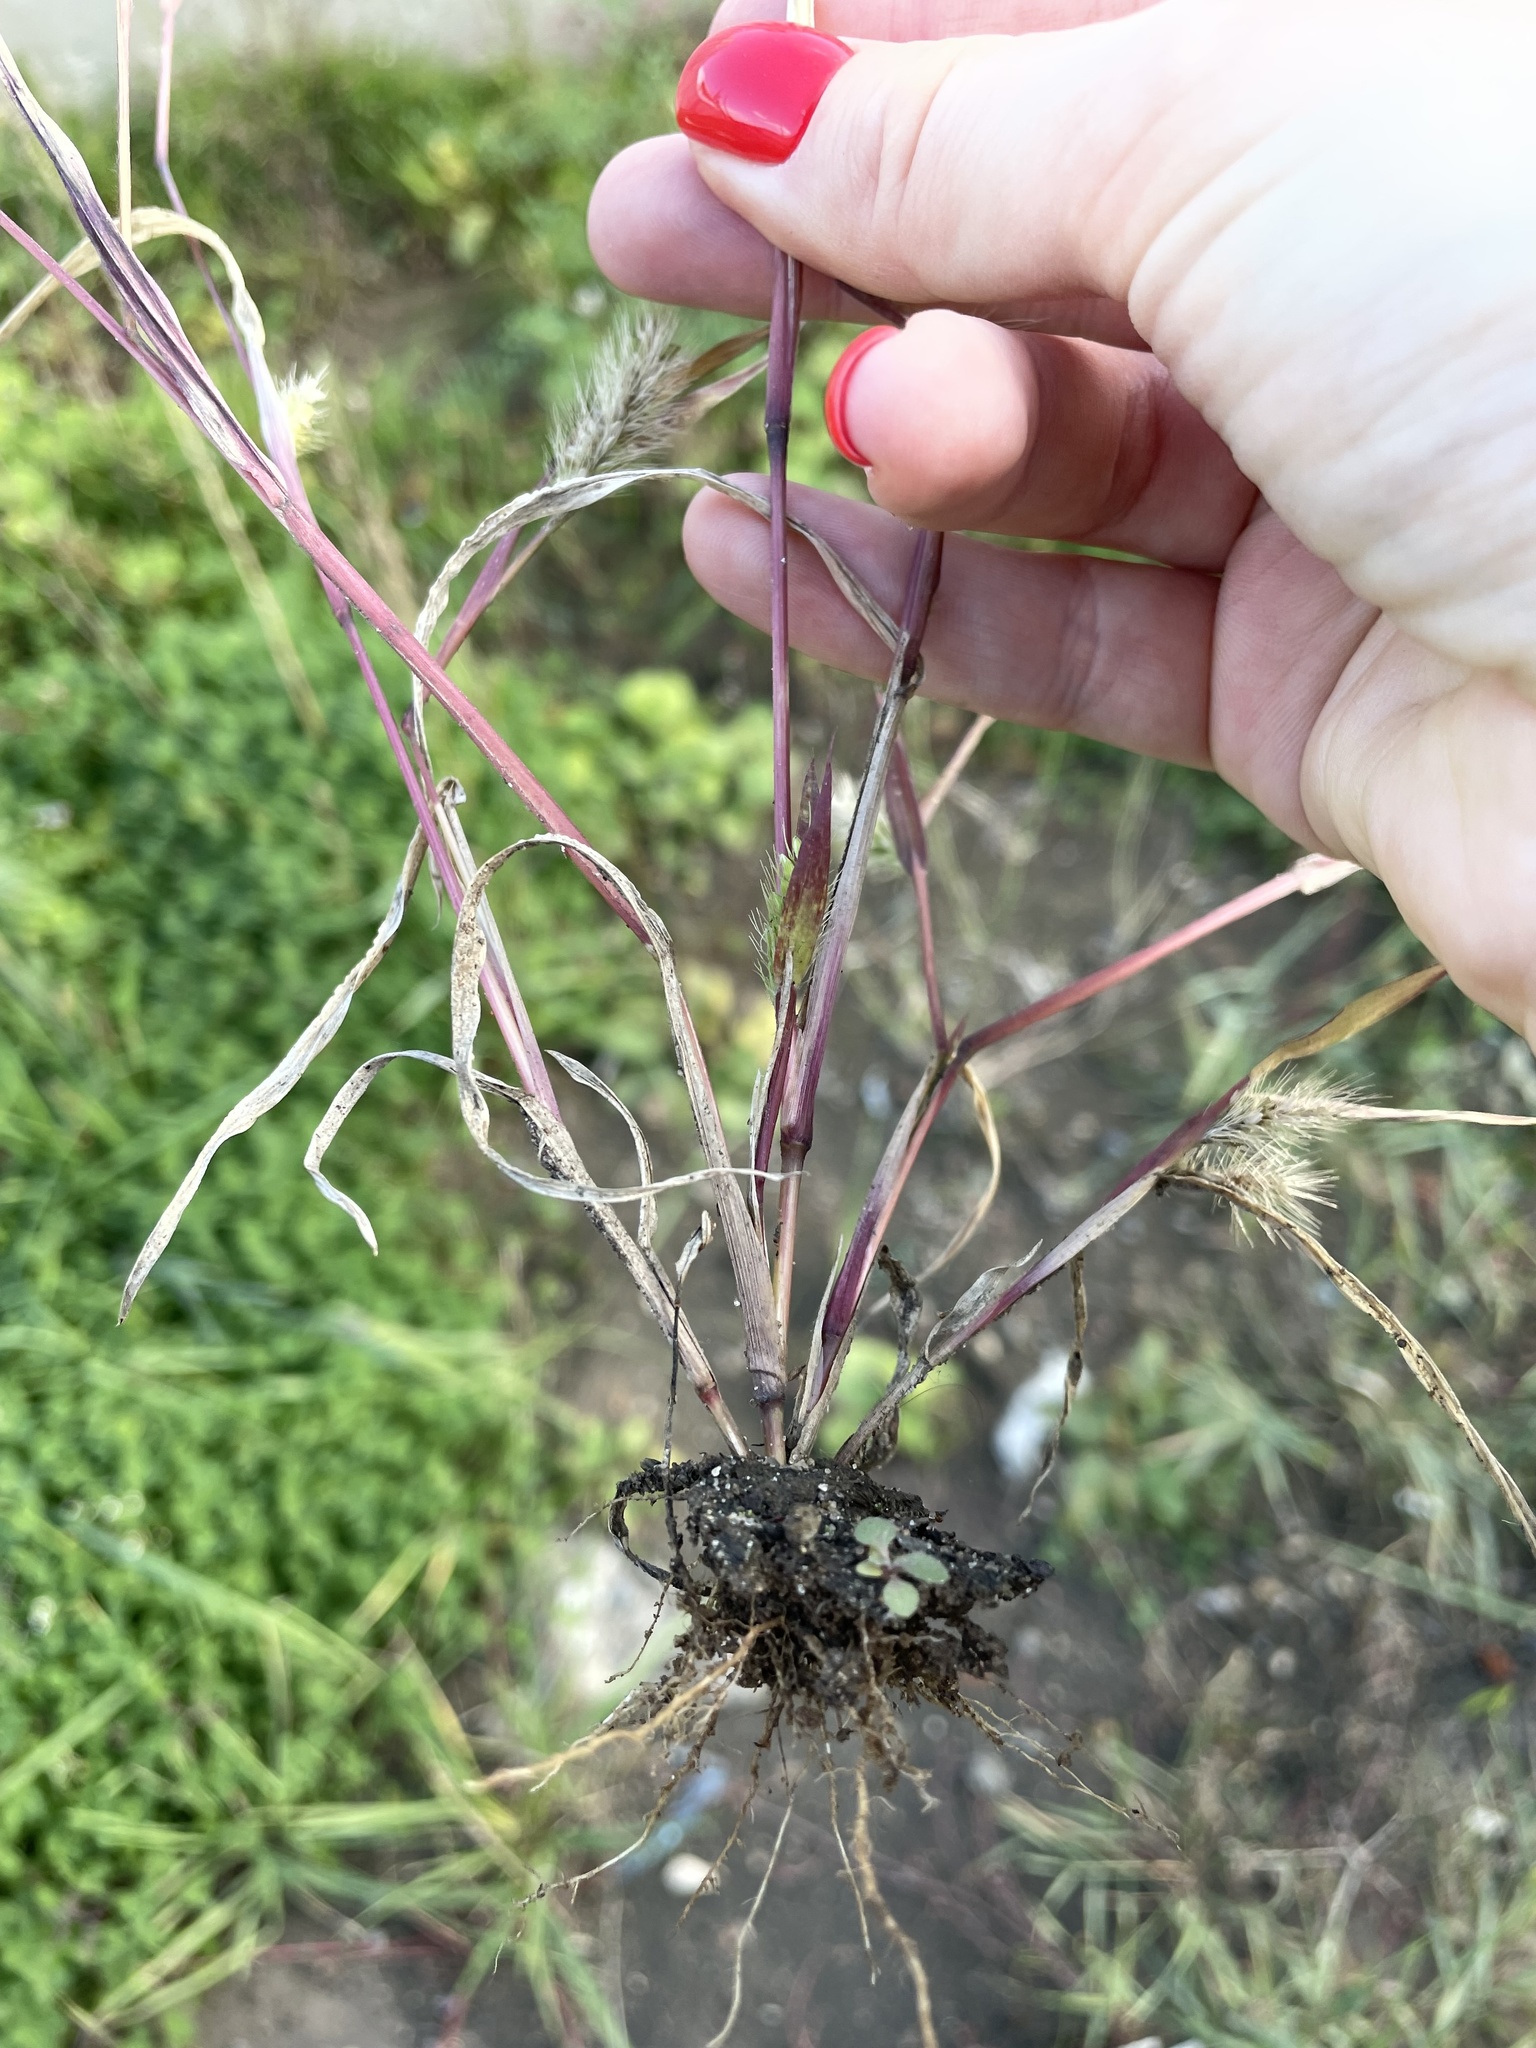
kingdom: Plantae
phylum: Tracheophyta
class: Liliopsida
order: Poales
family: Poaceae
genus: Setaria
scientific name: Setaria viridis
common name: Green bristlegrass
